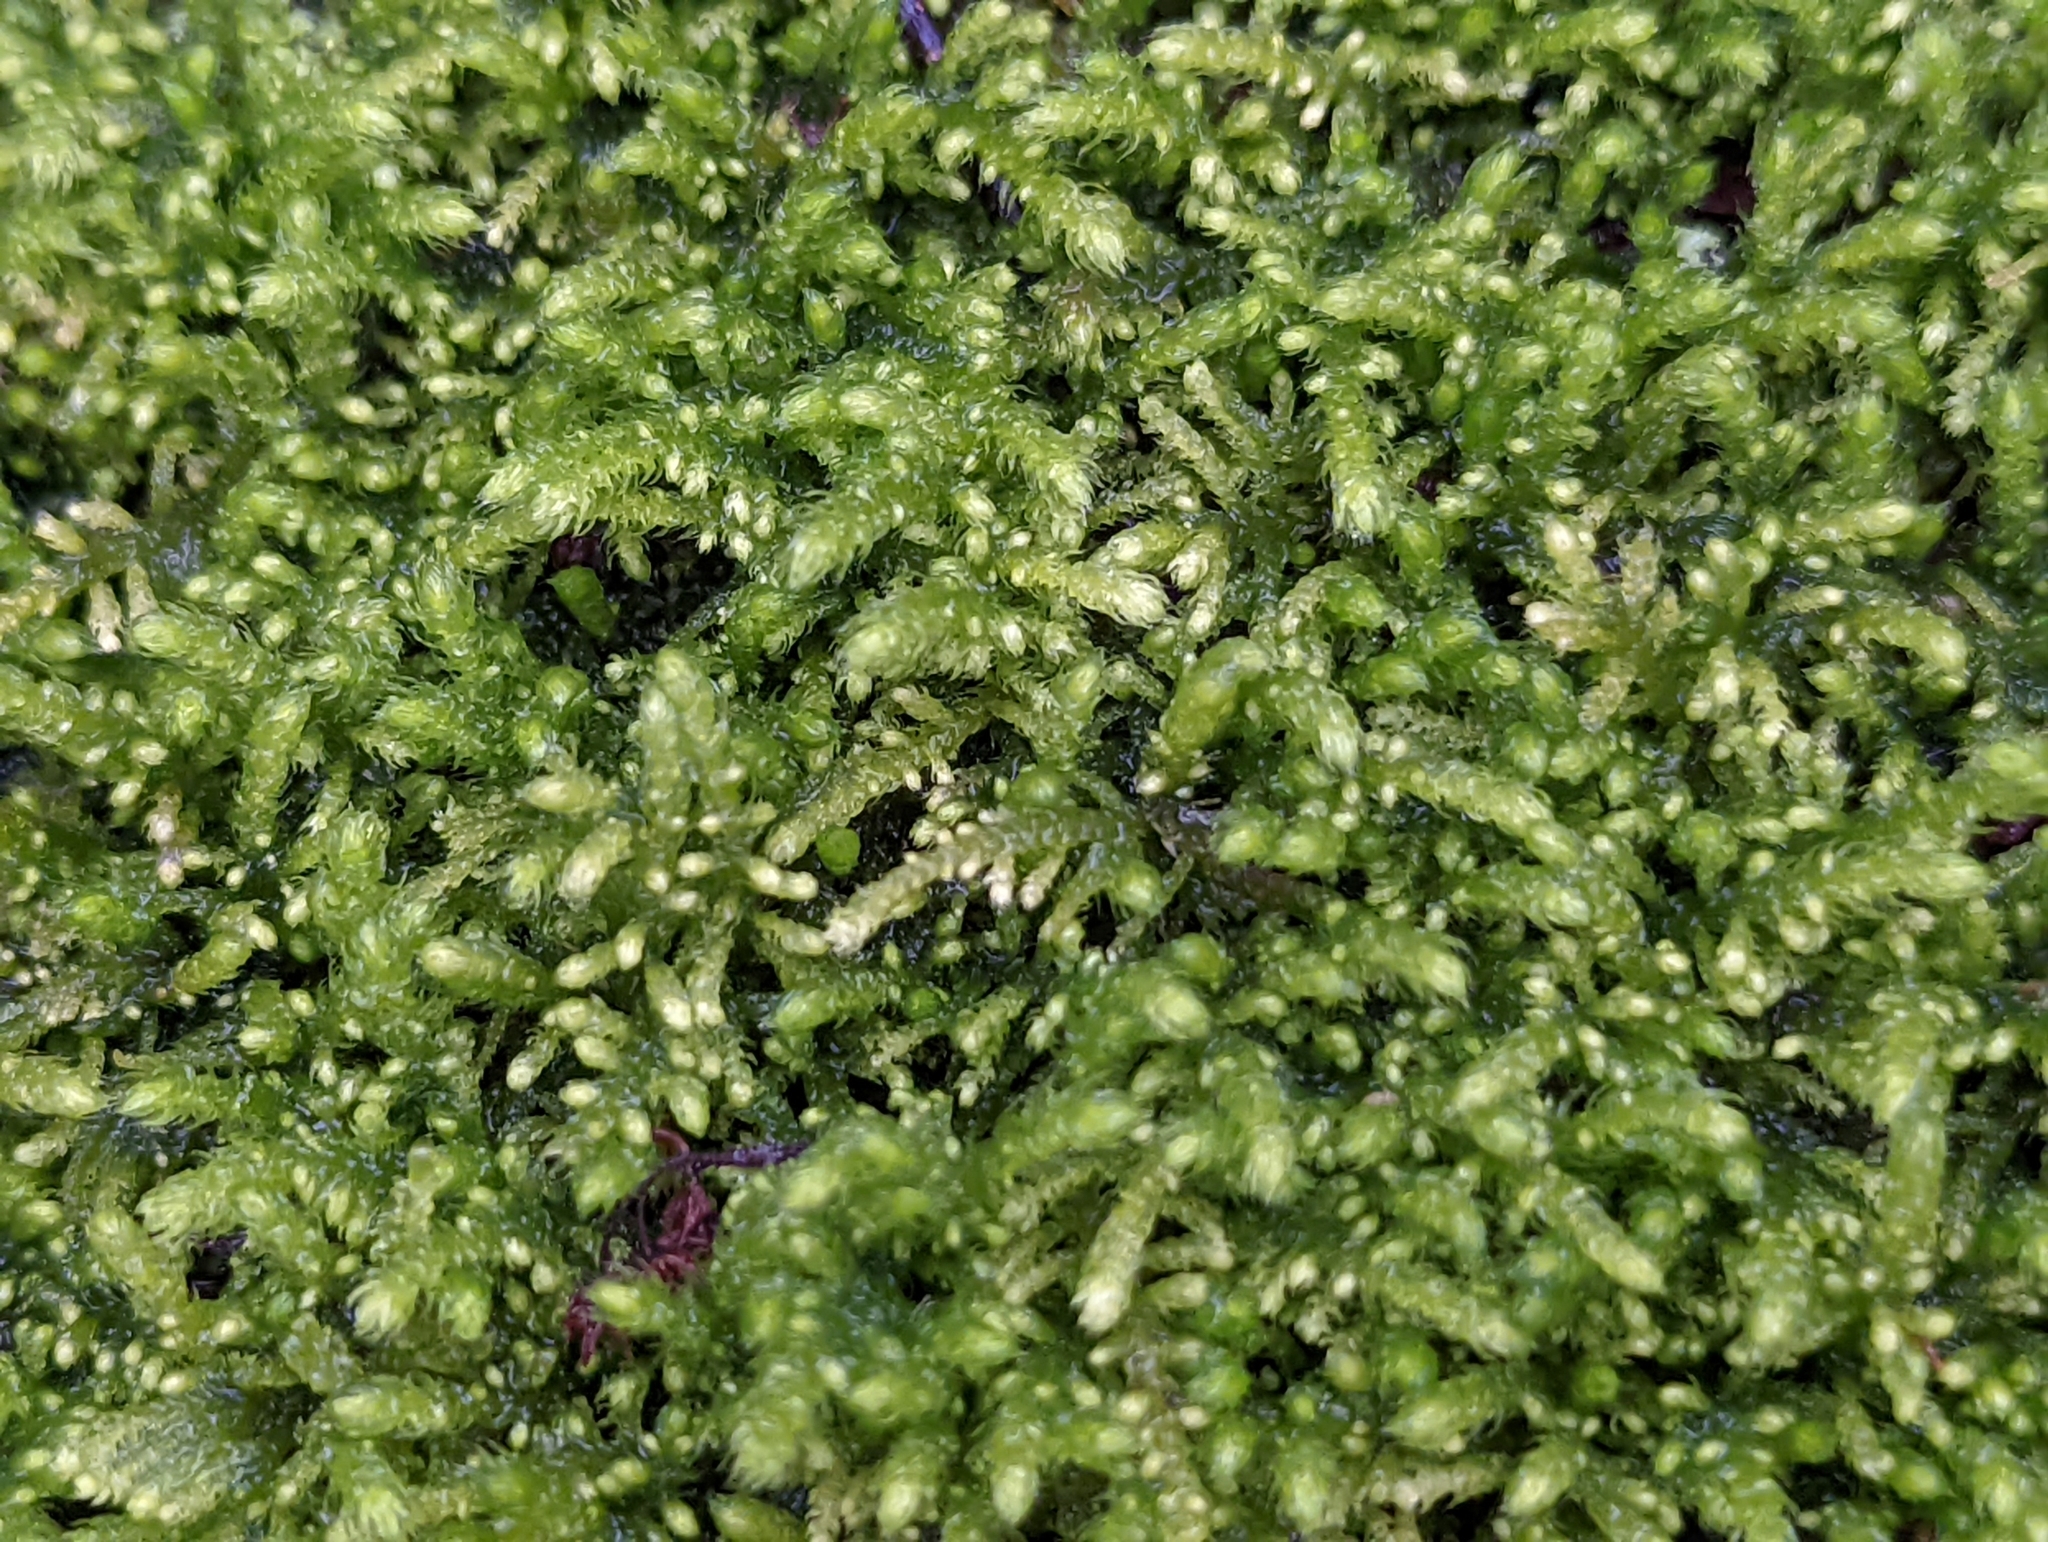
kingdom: Plantae
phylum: Bryophyta
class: Bryopsida
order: Hypnales
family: Brachytheciaceae
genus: Claopodium
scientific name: Claopodium bolanderi
